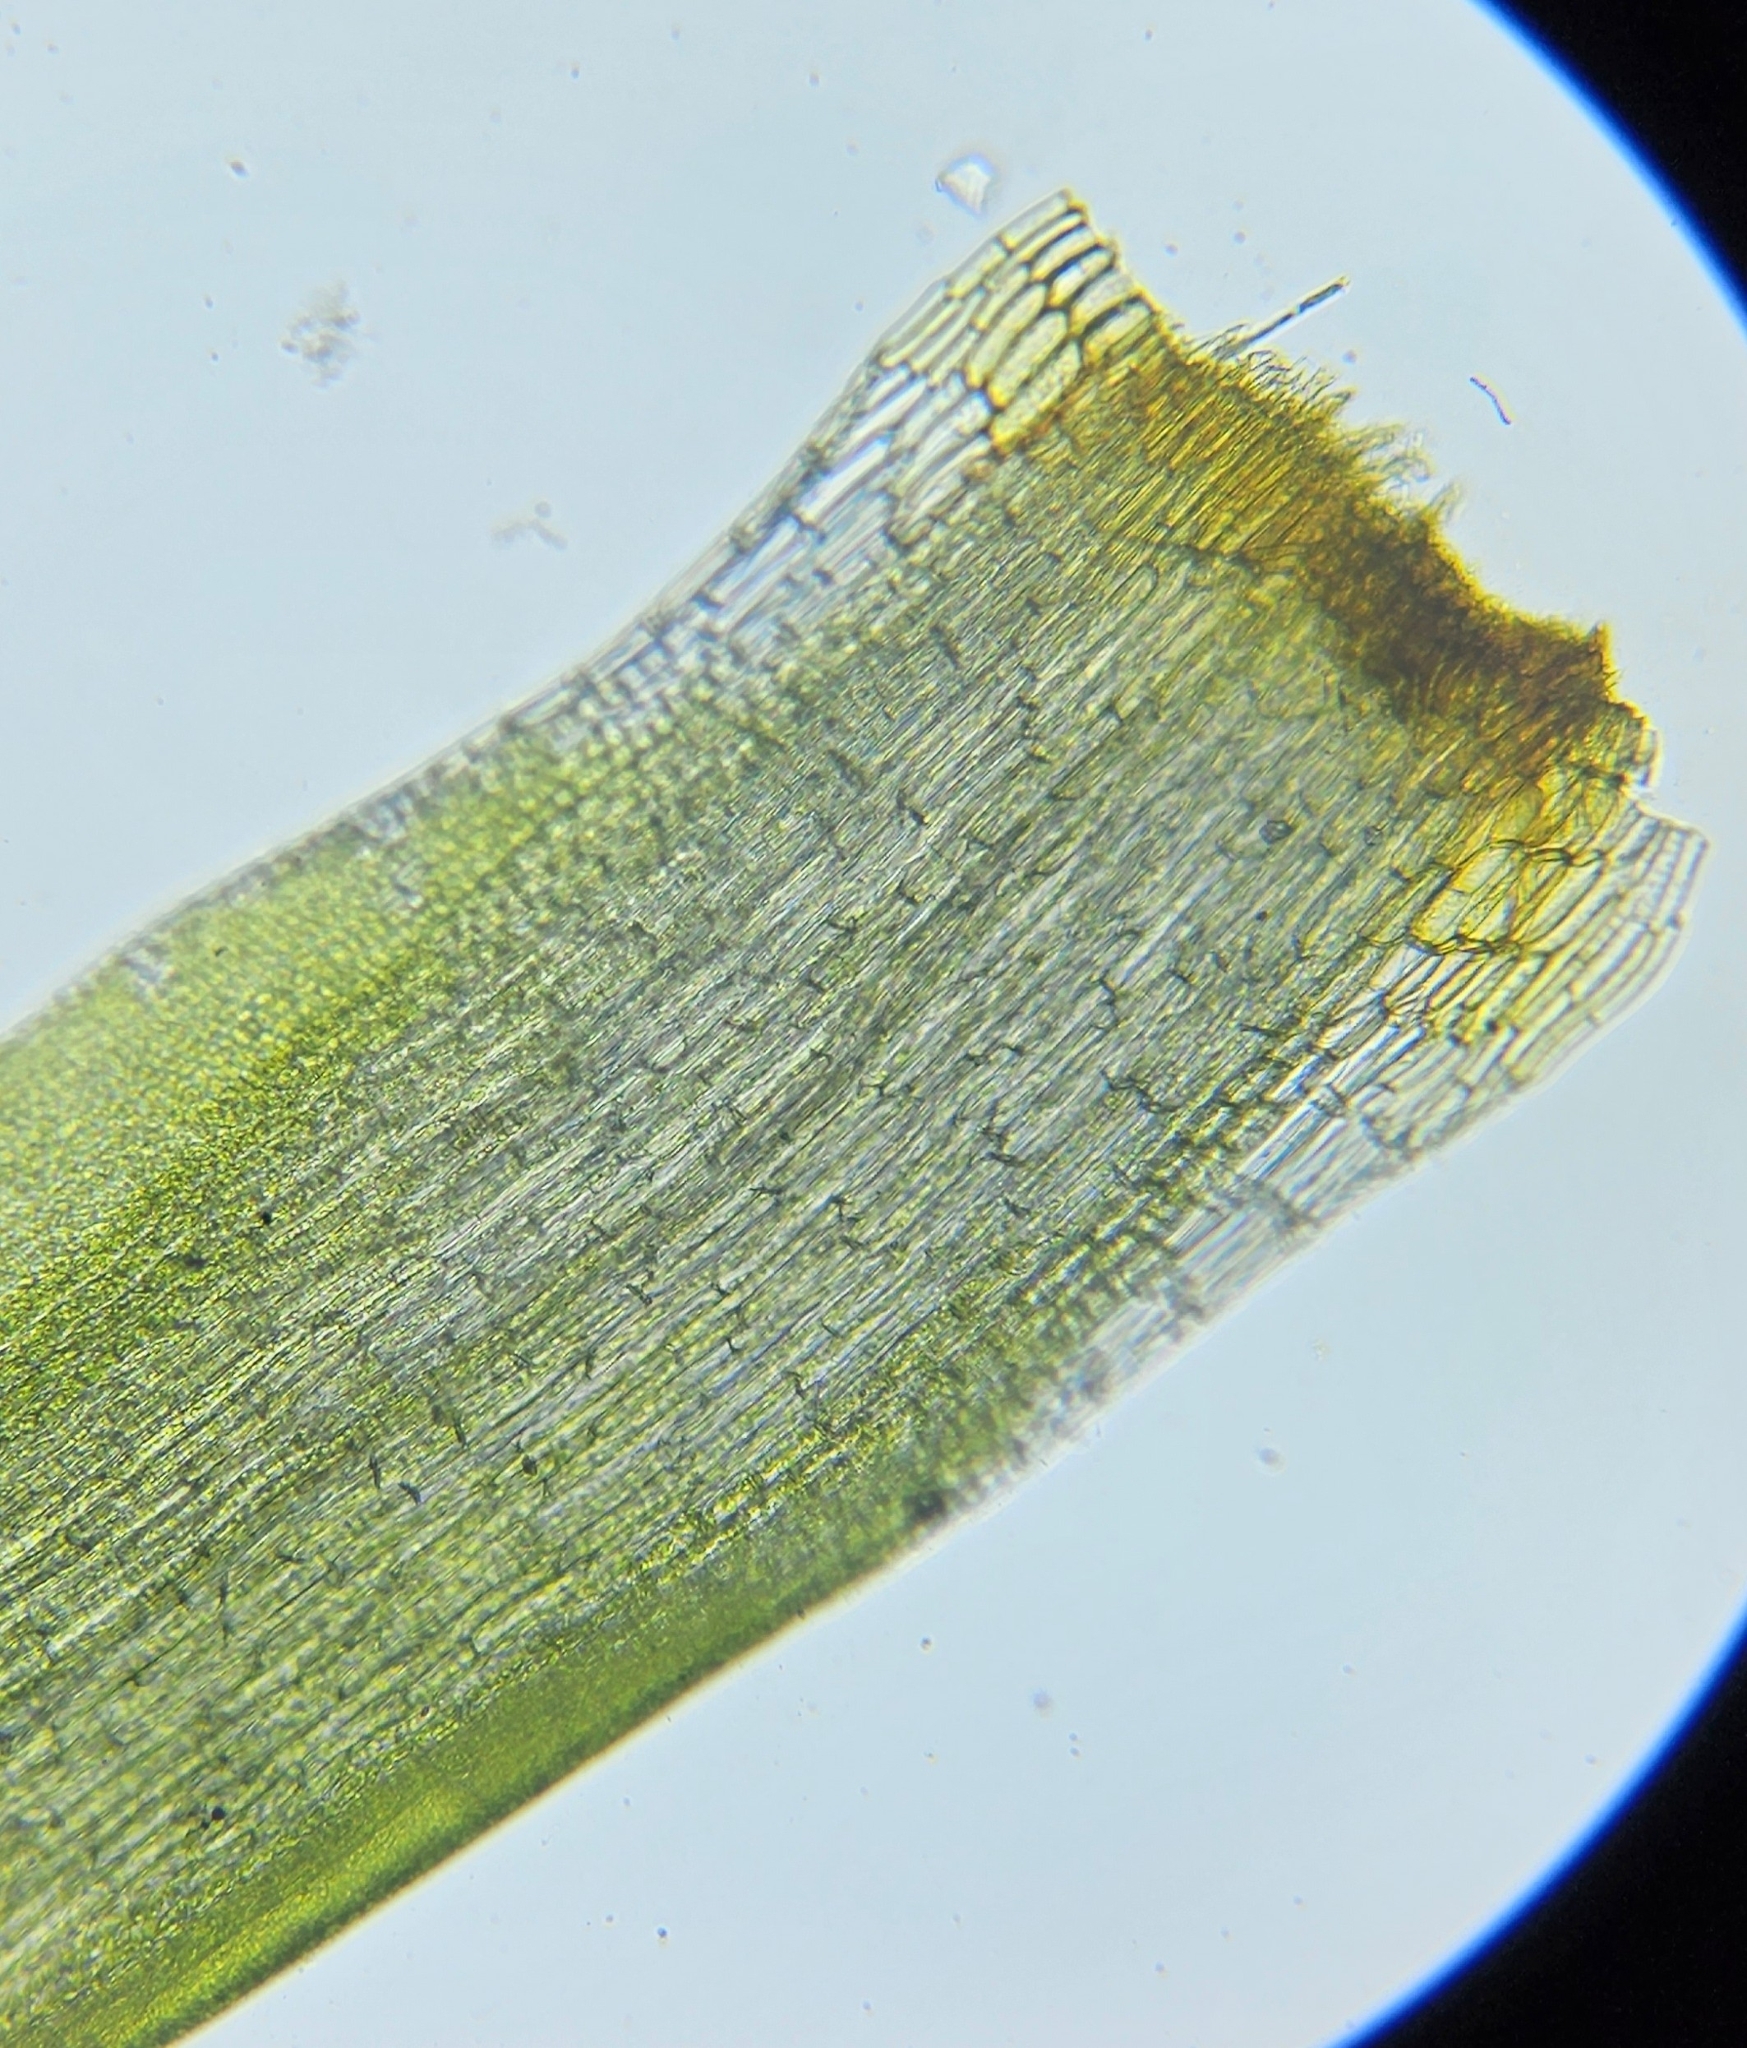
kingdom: Plantae
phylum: Bryophyta
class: Bryopsida
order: Dicranales
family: Leucobryaceae
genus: Campylopus
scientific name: Campylopus introflexus
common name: Heath star moss
